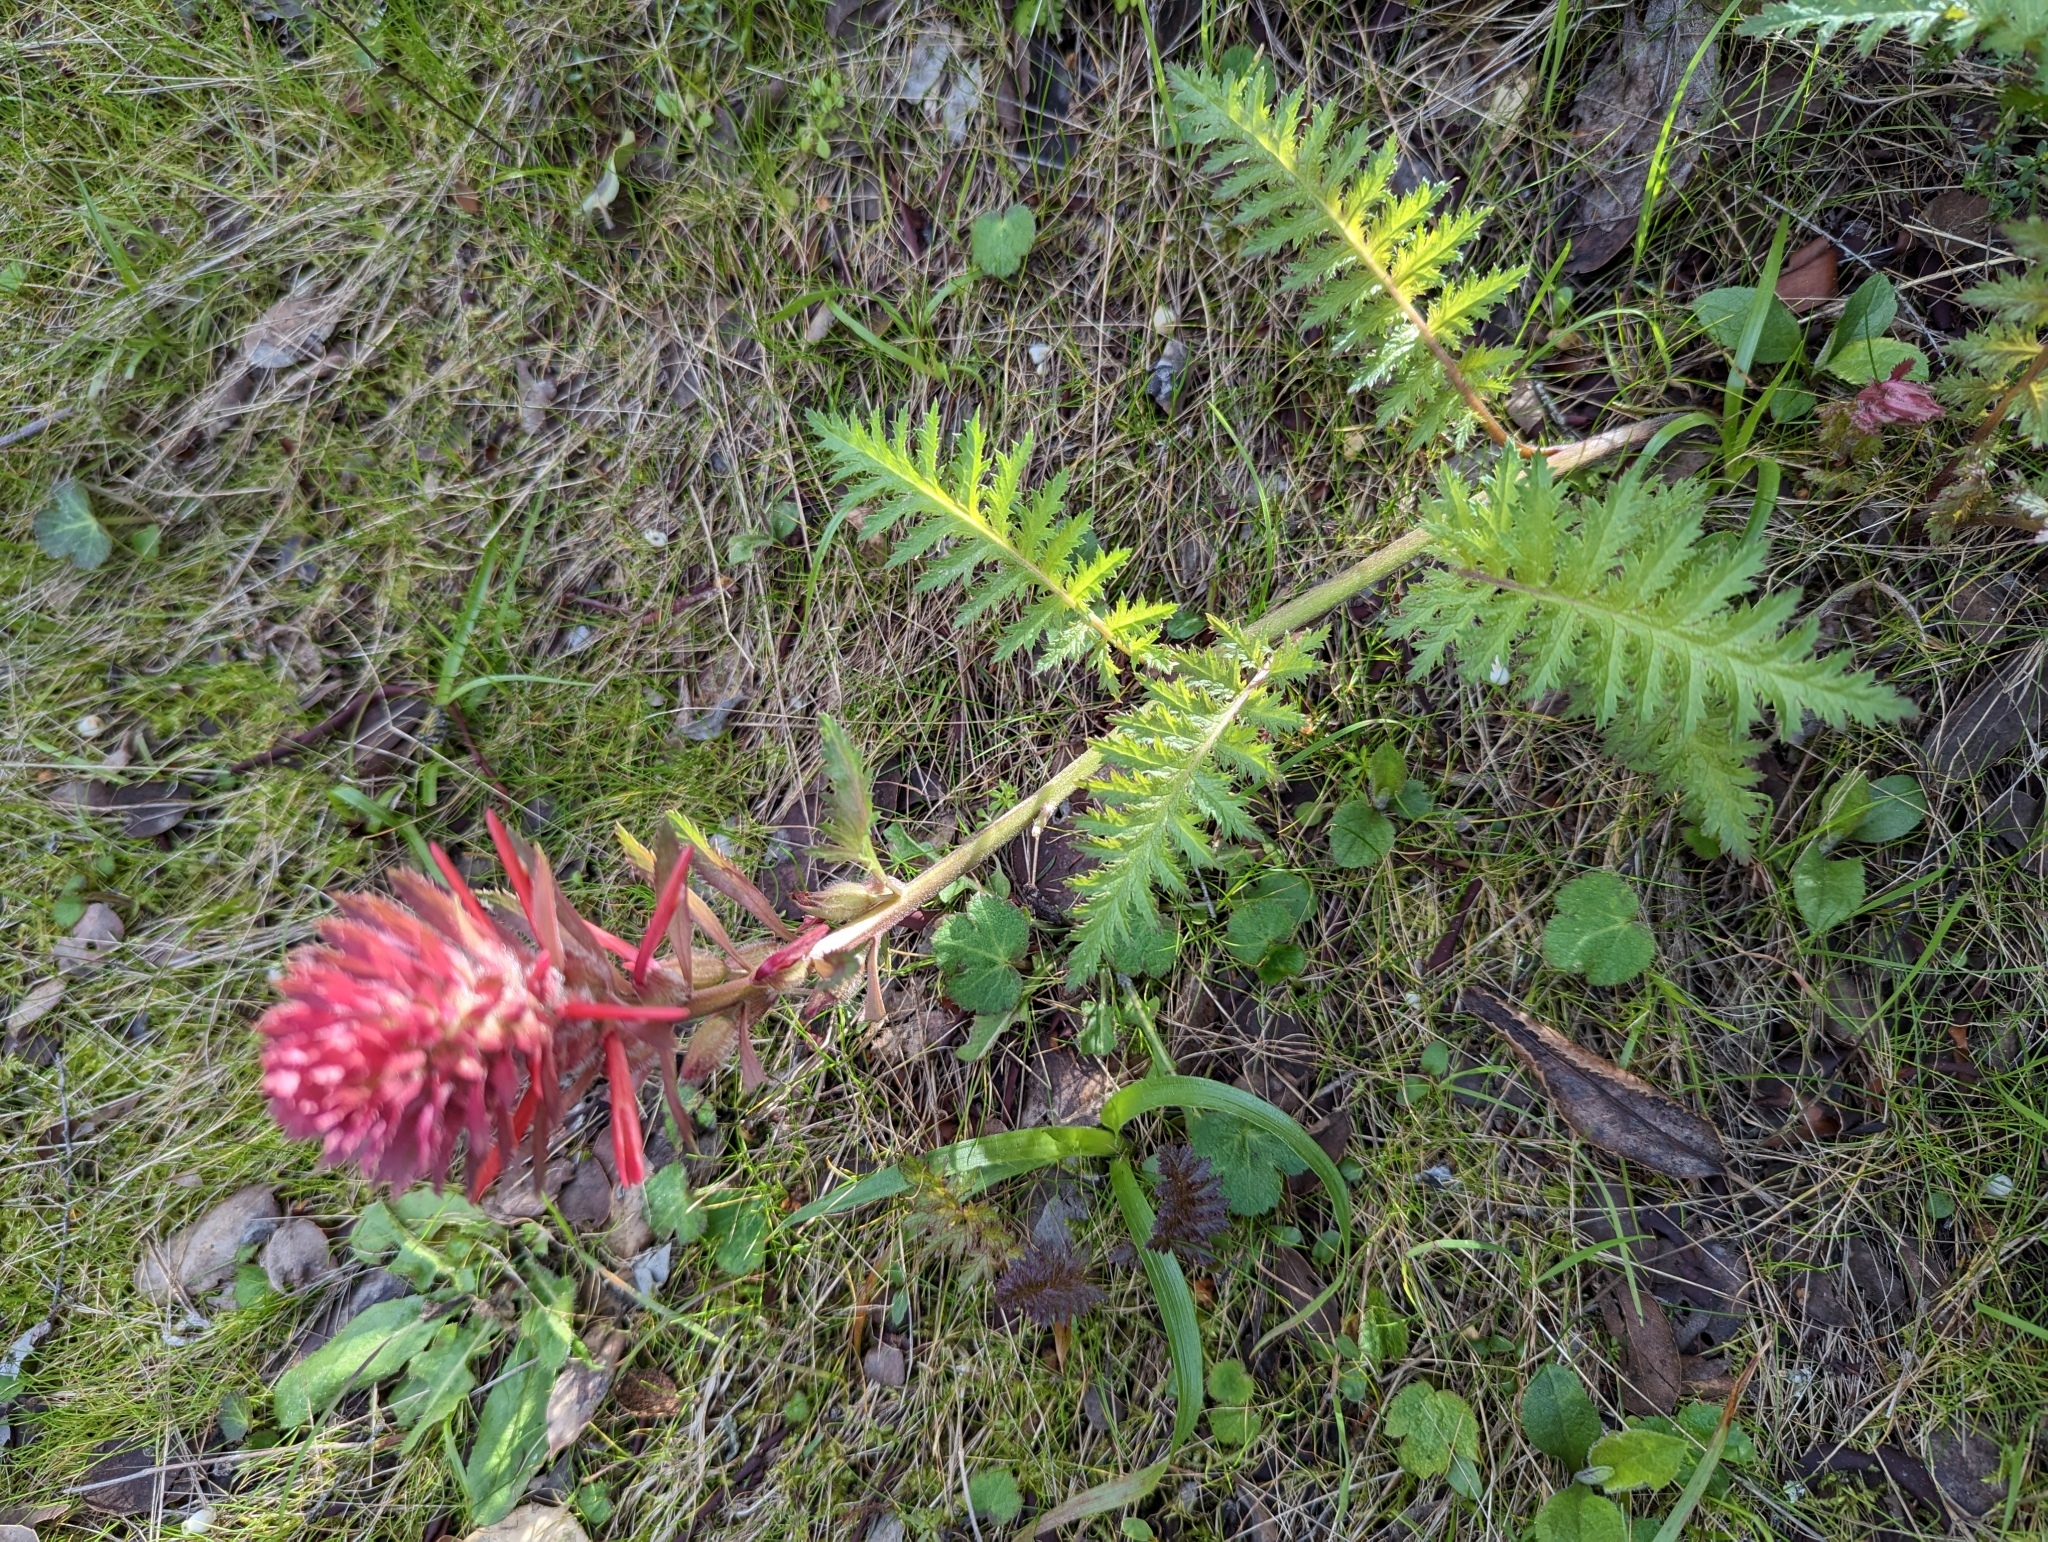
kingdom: Plantae
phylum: Tracheophyta
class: Magnoliopsida
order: Lamiales
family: Orobanchaceae
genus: Pedicularis
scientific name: Pedicularis densiflora
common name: Indian warrior
